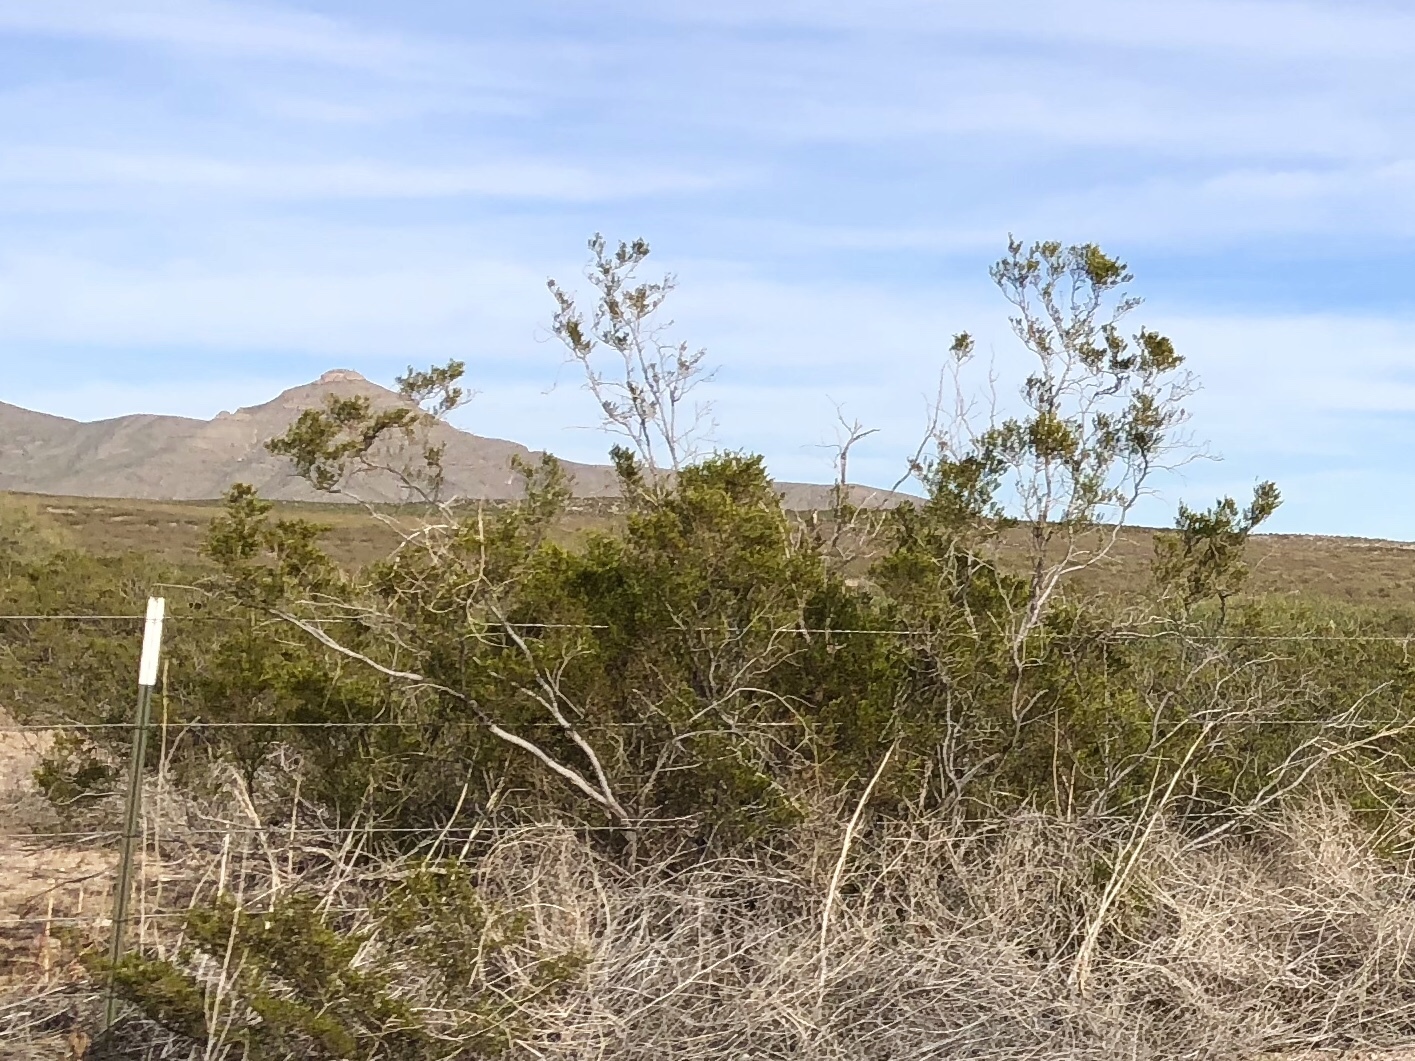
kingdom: Plantae
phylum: Tracheophyta
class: Magnoliopsida
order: Zygophyllales
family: Zygophyllaceae
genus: Larrea
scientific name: Larrea tridentata
